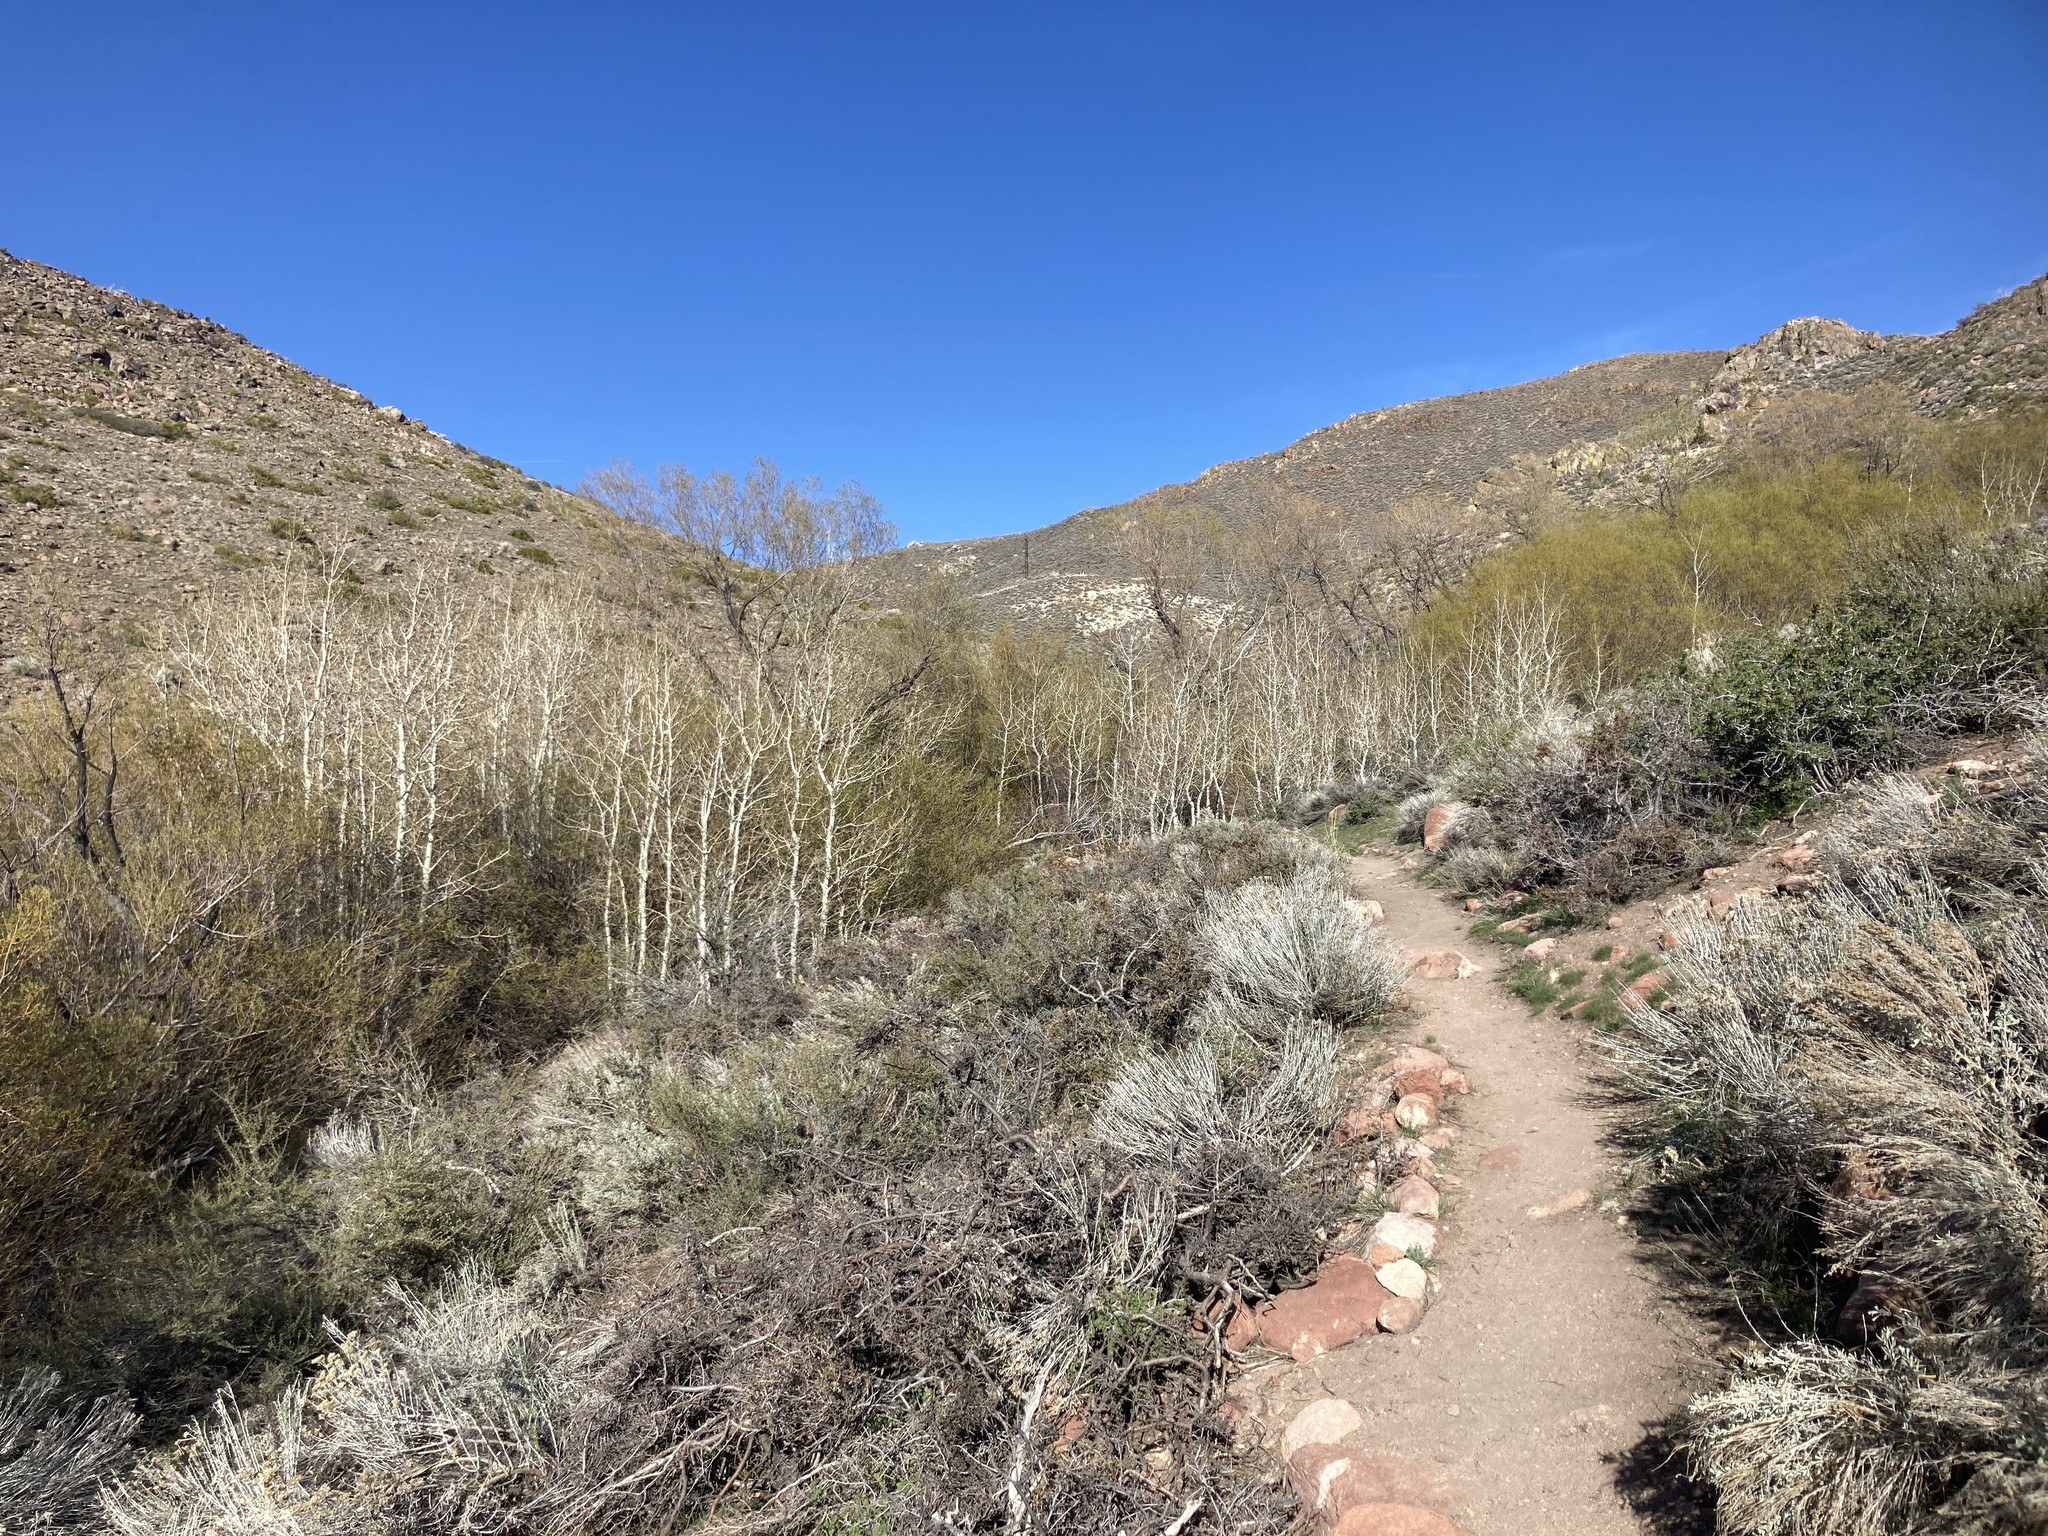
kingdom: Plantae
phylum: Tracheophyta
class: Magnoliopsida
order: Malpighiales
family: Salicaceae
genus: Populus
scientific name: Populus tremuloides
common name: Quaking aspen
